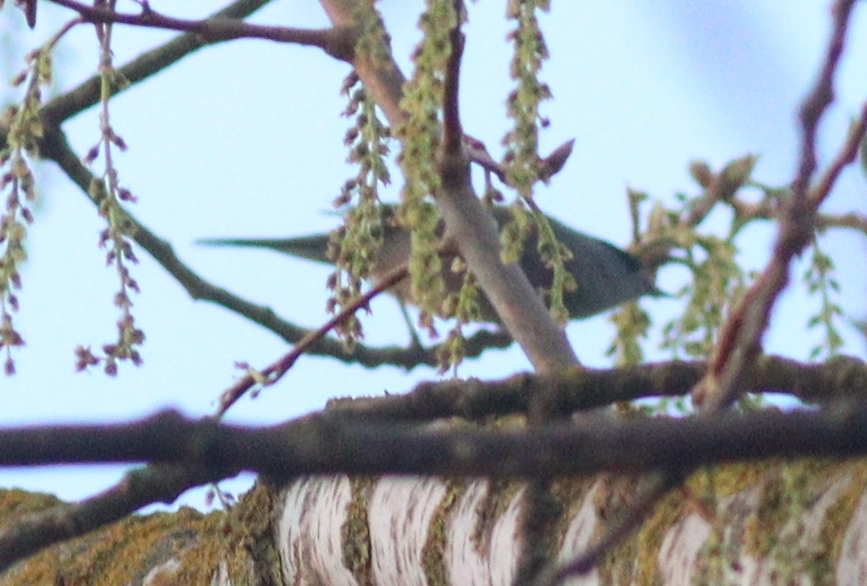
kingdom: Animalia
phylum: Chordata
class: Aves
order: Passeriformes
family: Sylviidae
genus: Sylvia
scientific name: Sylvia atricapilla
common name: Eurasian blackcap
